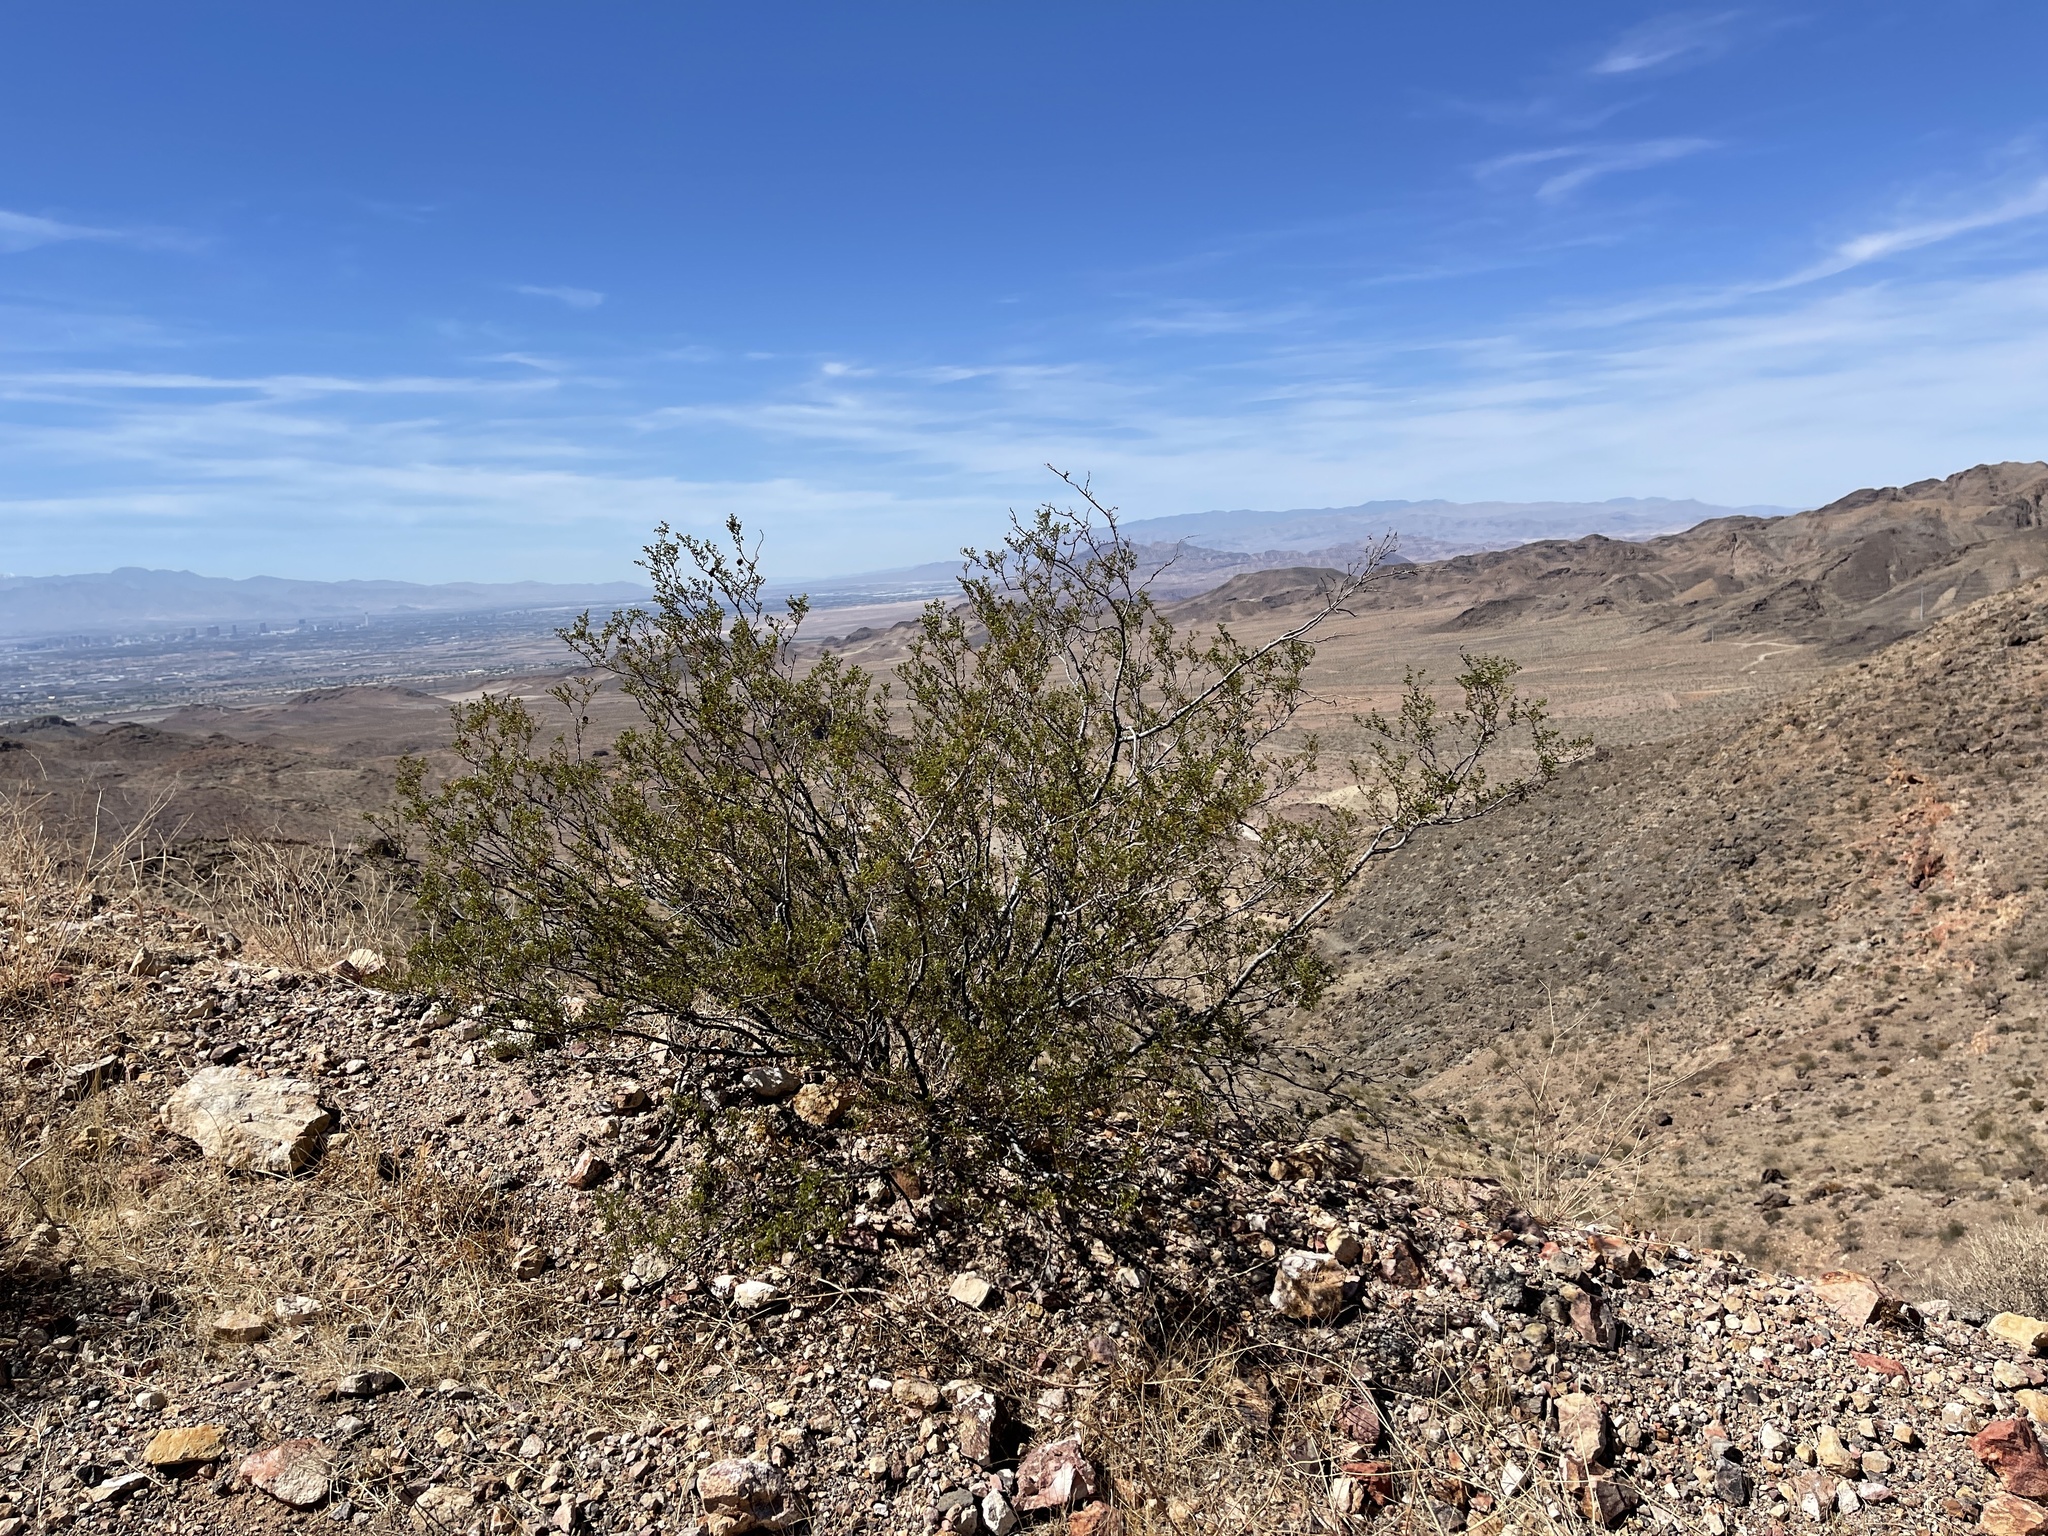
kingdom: Plantae
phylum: Tracheophyta
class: Magnoliopsida
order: Zygophyllales
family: Zygophyllaceae
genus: Larrea
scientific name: Larrea tridentata
